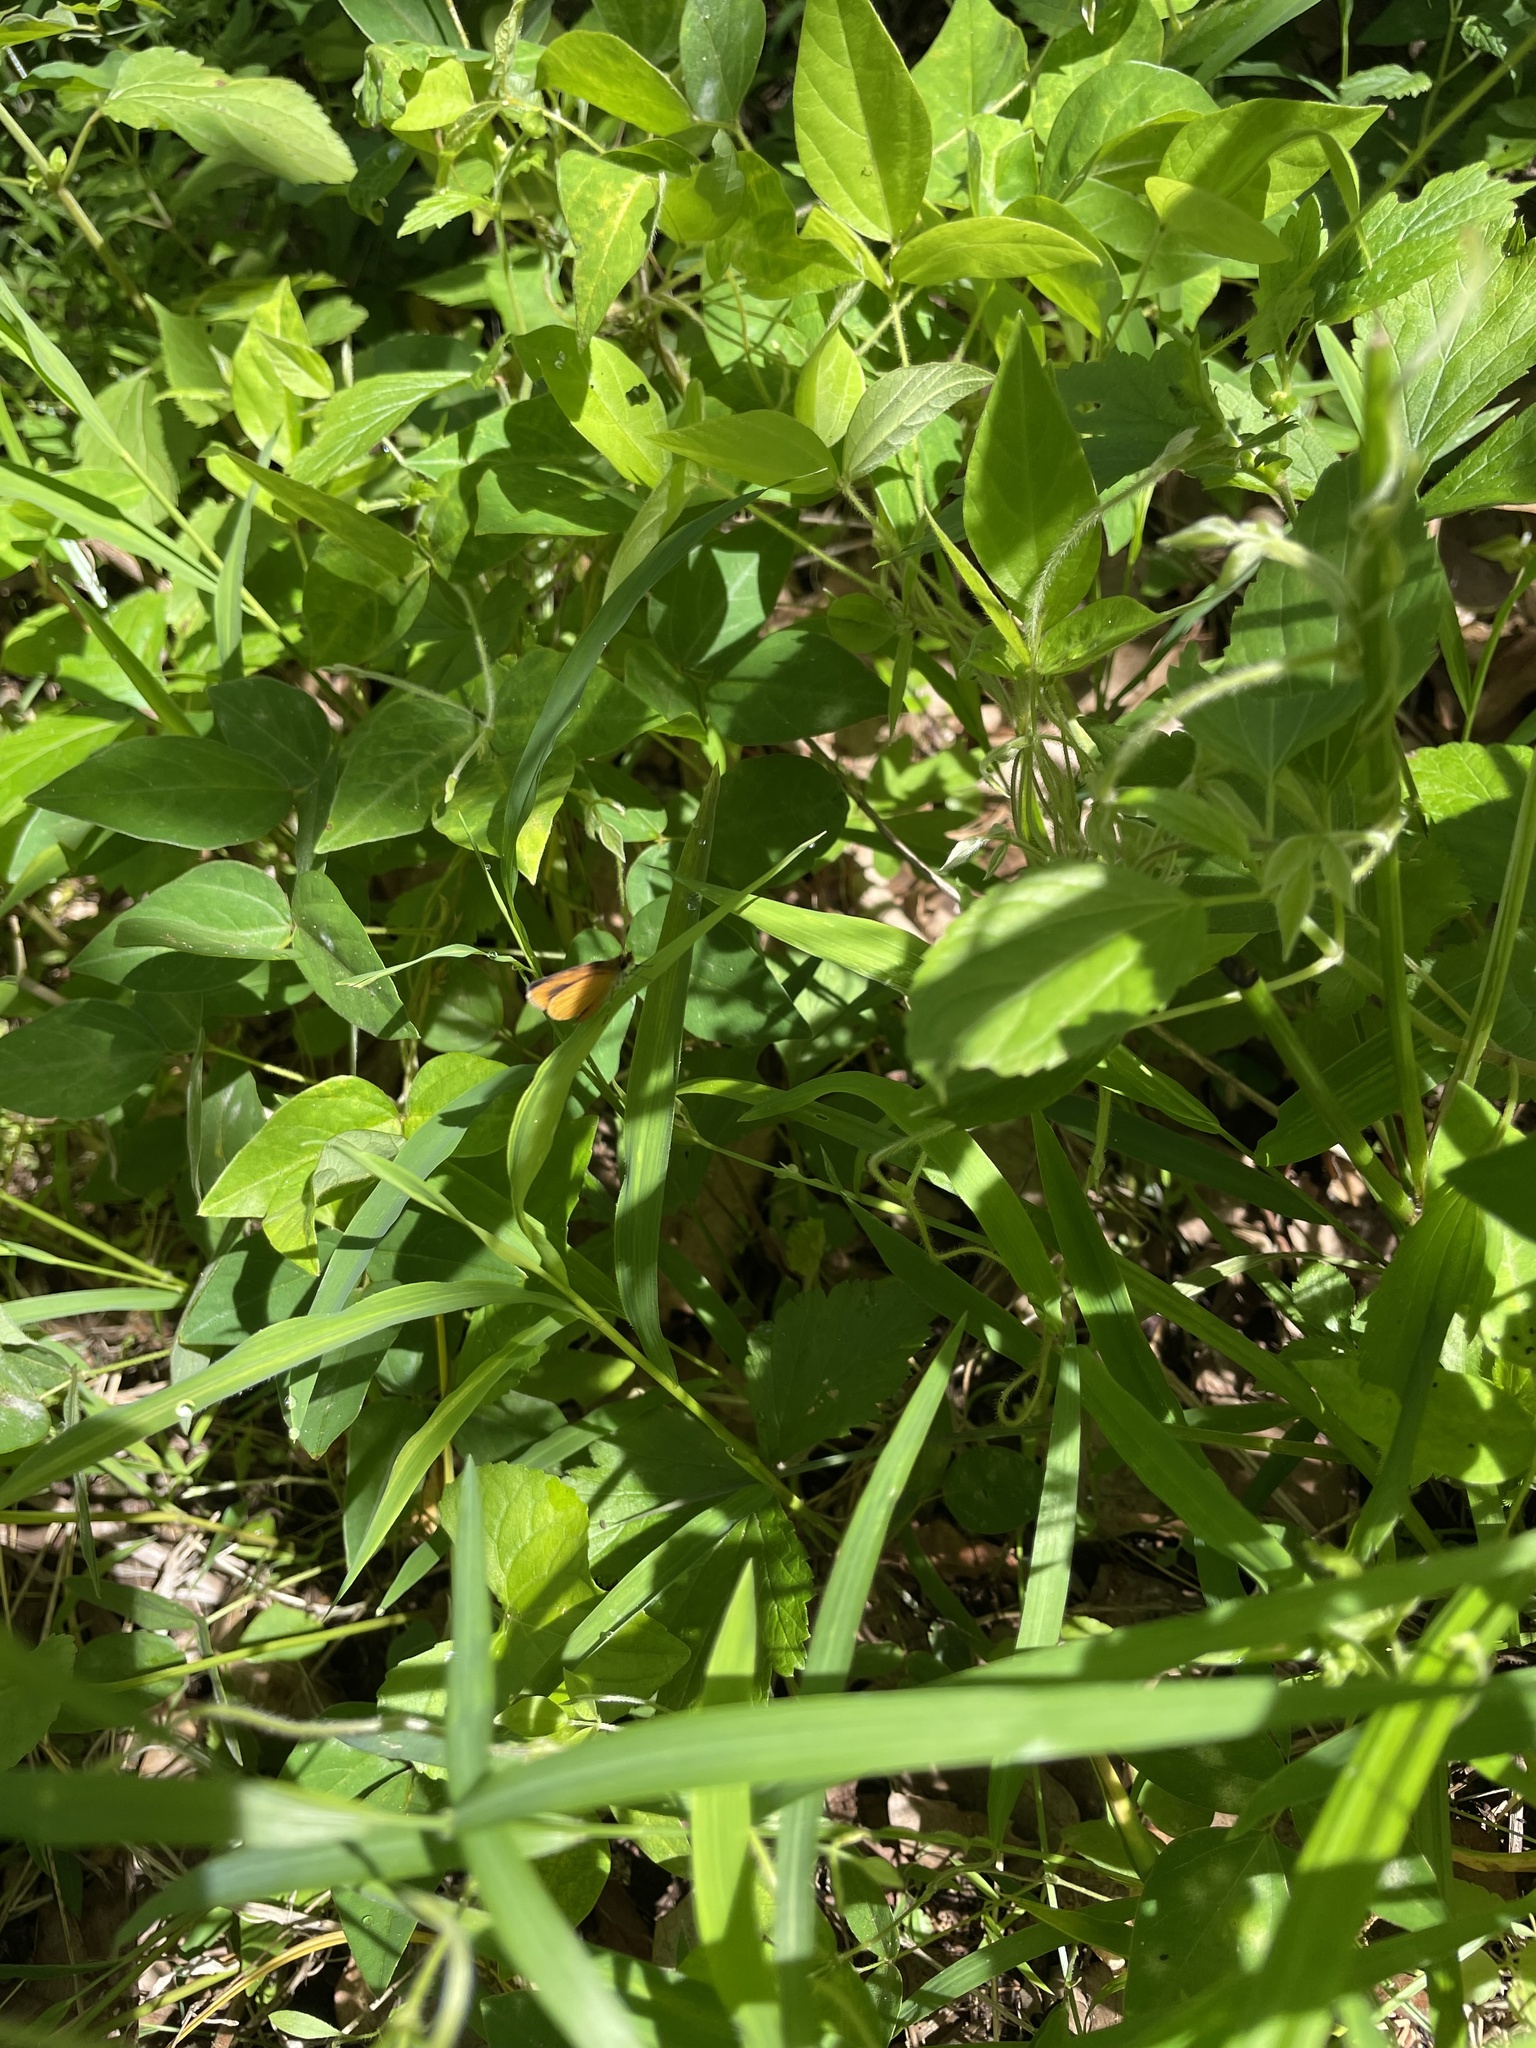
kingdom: Animalia
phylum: Arthropoda
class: Insecta
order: Lepidoptera
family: Hesperiidae
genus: Ancyloxypha
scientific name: Ancyloxypha numitor
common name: Least skipper
